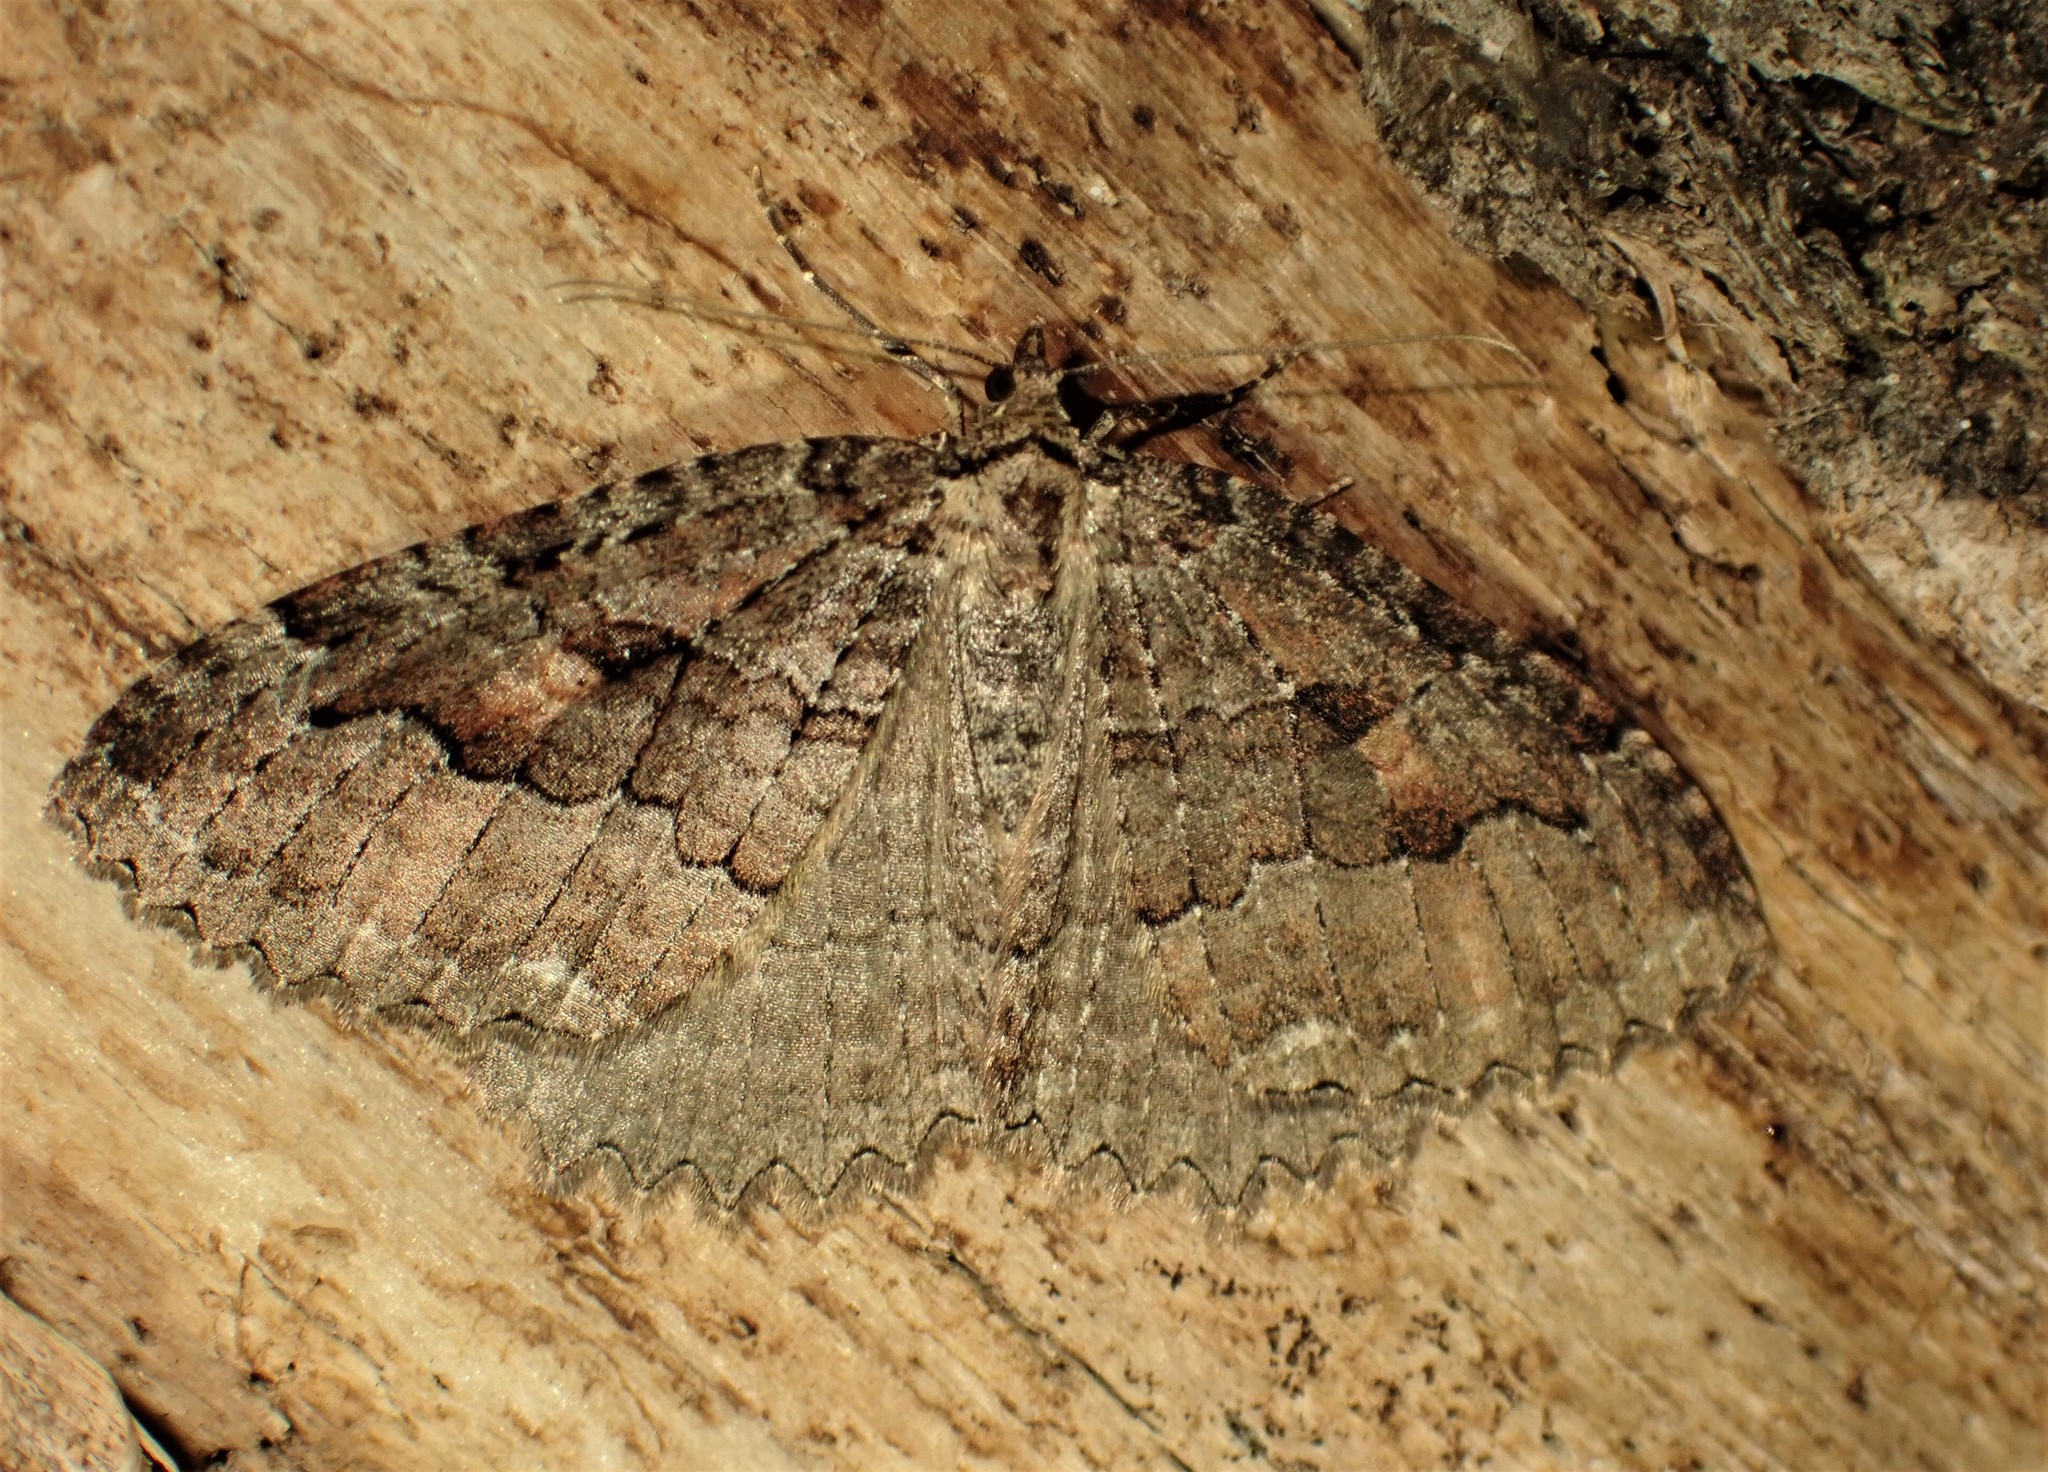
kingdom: Animalia
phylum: Arthropoda
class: Insecta
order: Lepidoptera
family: Geometridae
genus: Triphosa
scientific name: Triphosa haesitata
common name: Tissue moth
